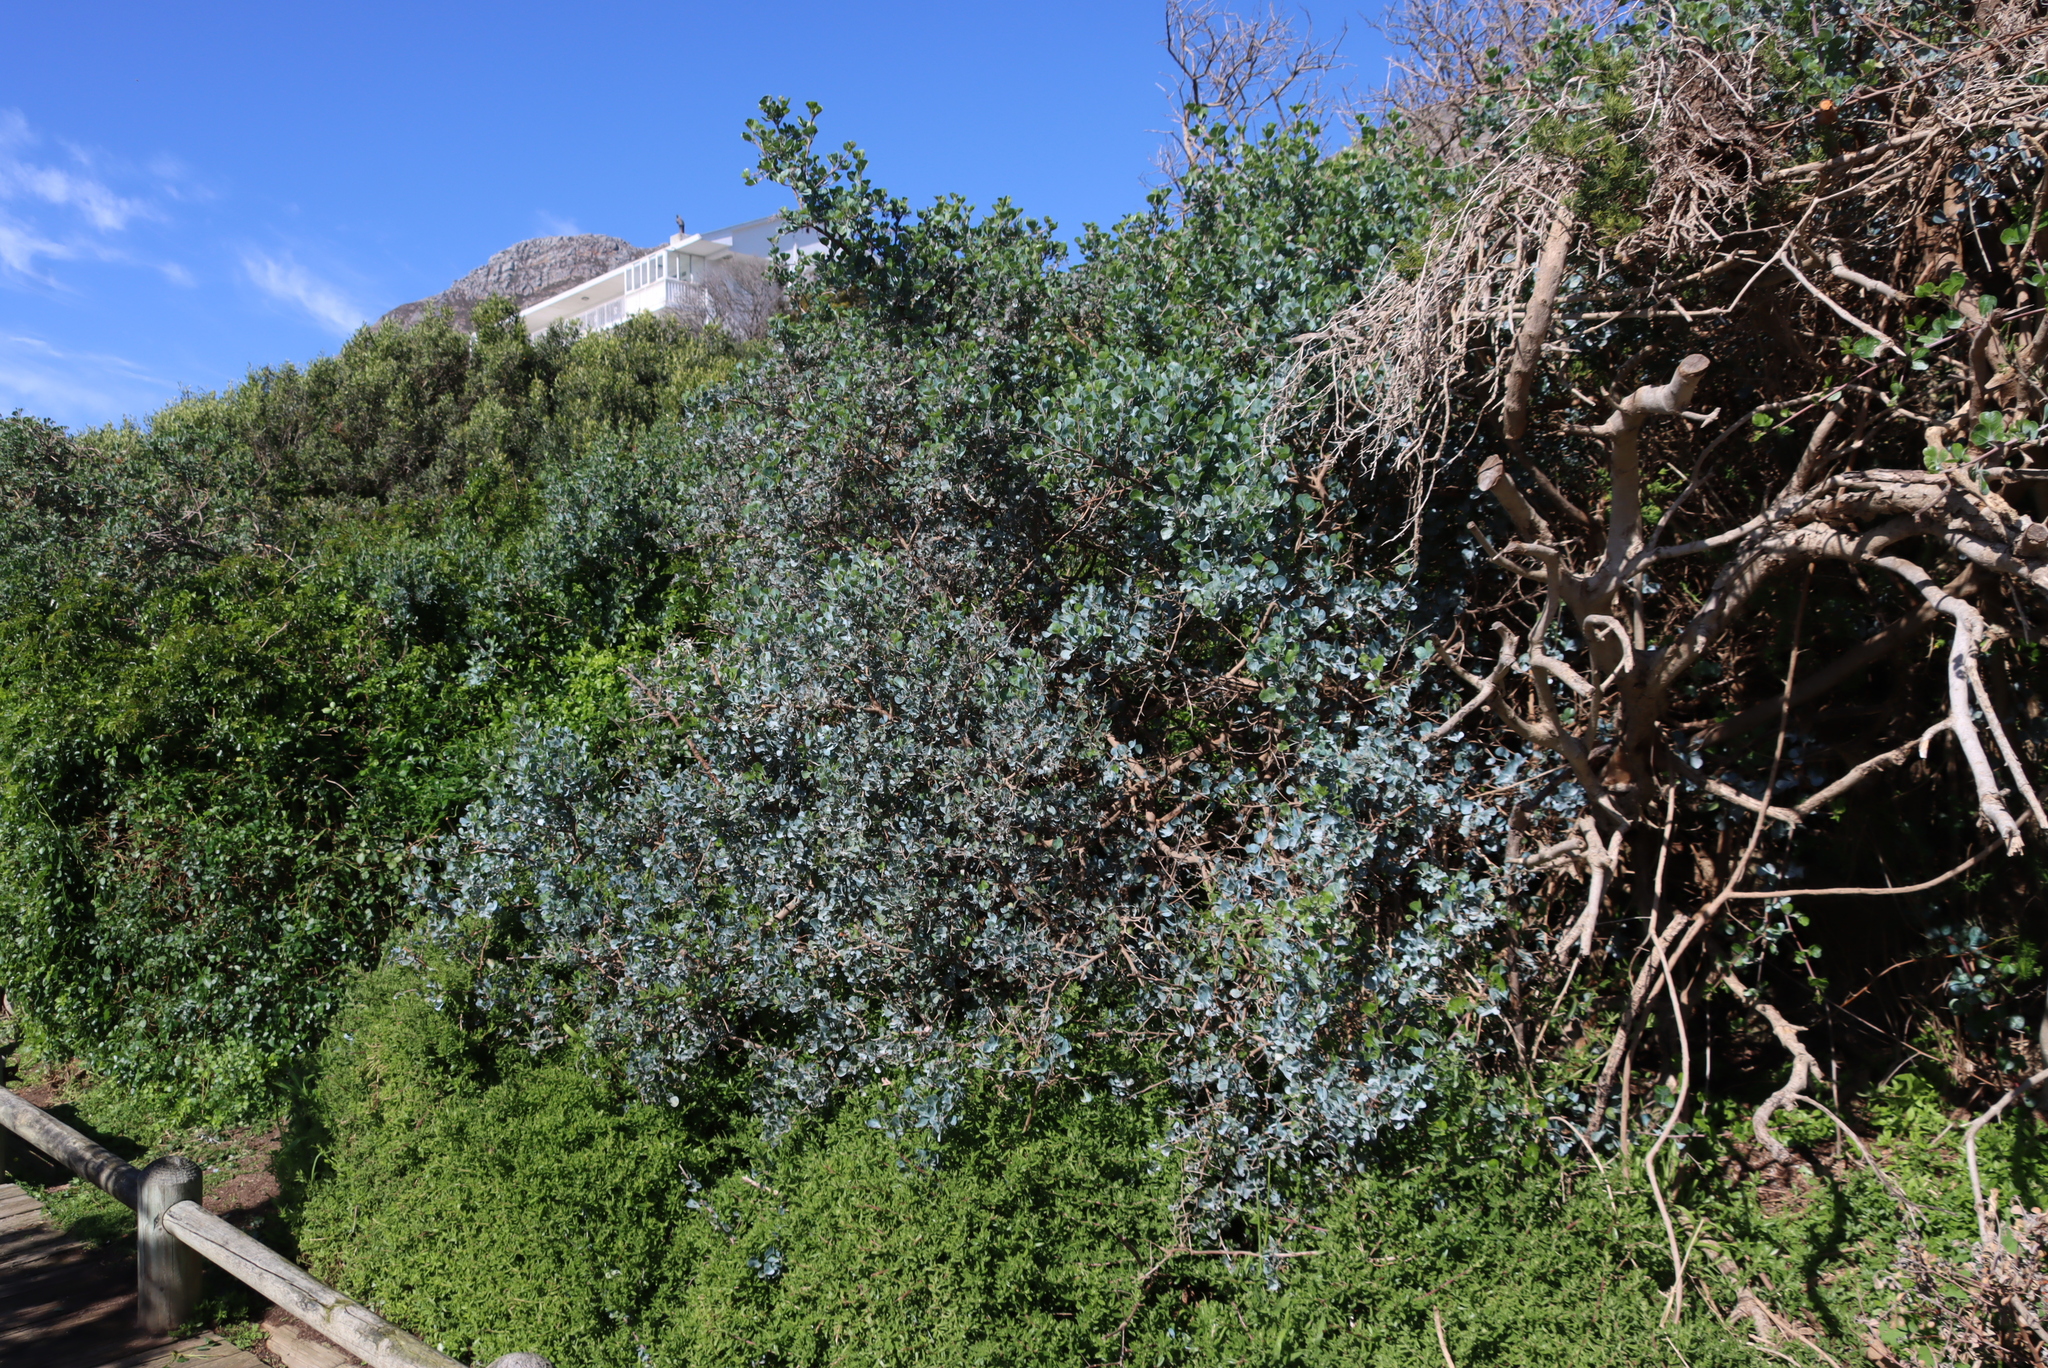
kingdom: Plantae
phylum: Tracheophyta
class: Magnoliopsida
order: Sapindales
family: Anacardiaceae
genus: Searsia
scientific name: Searsia glauca
